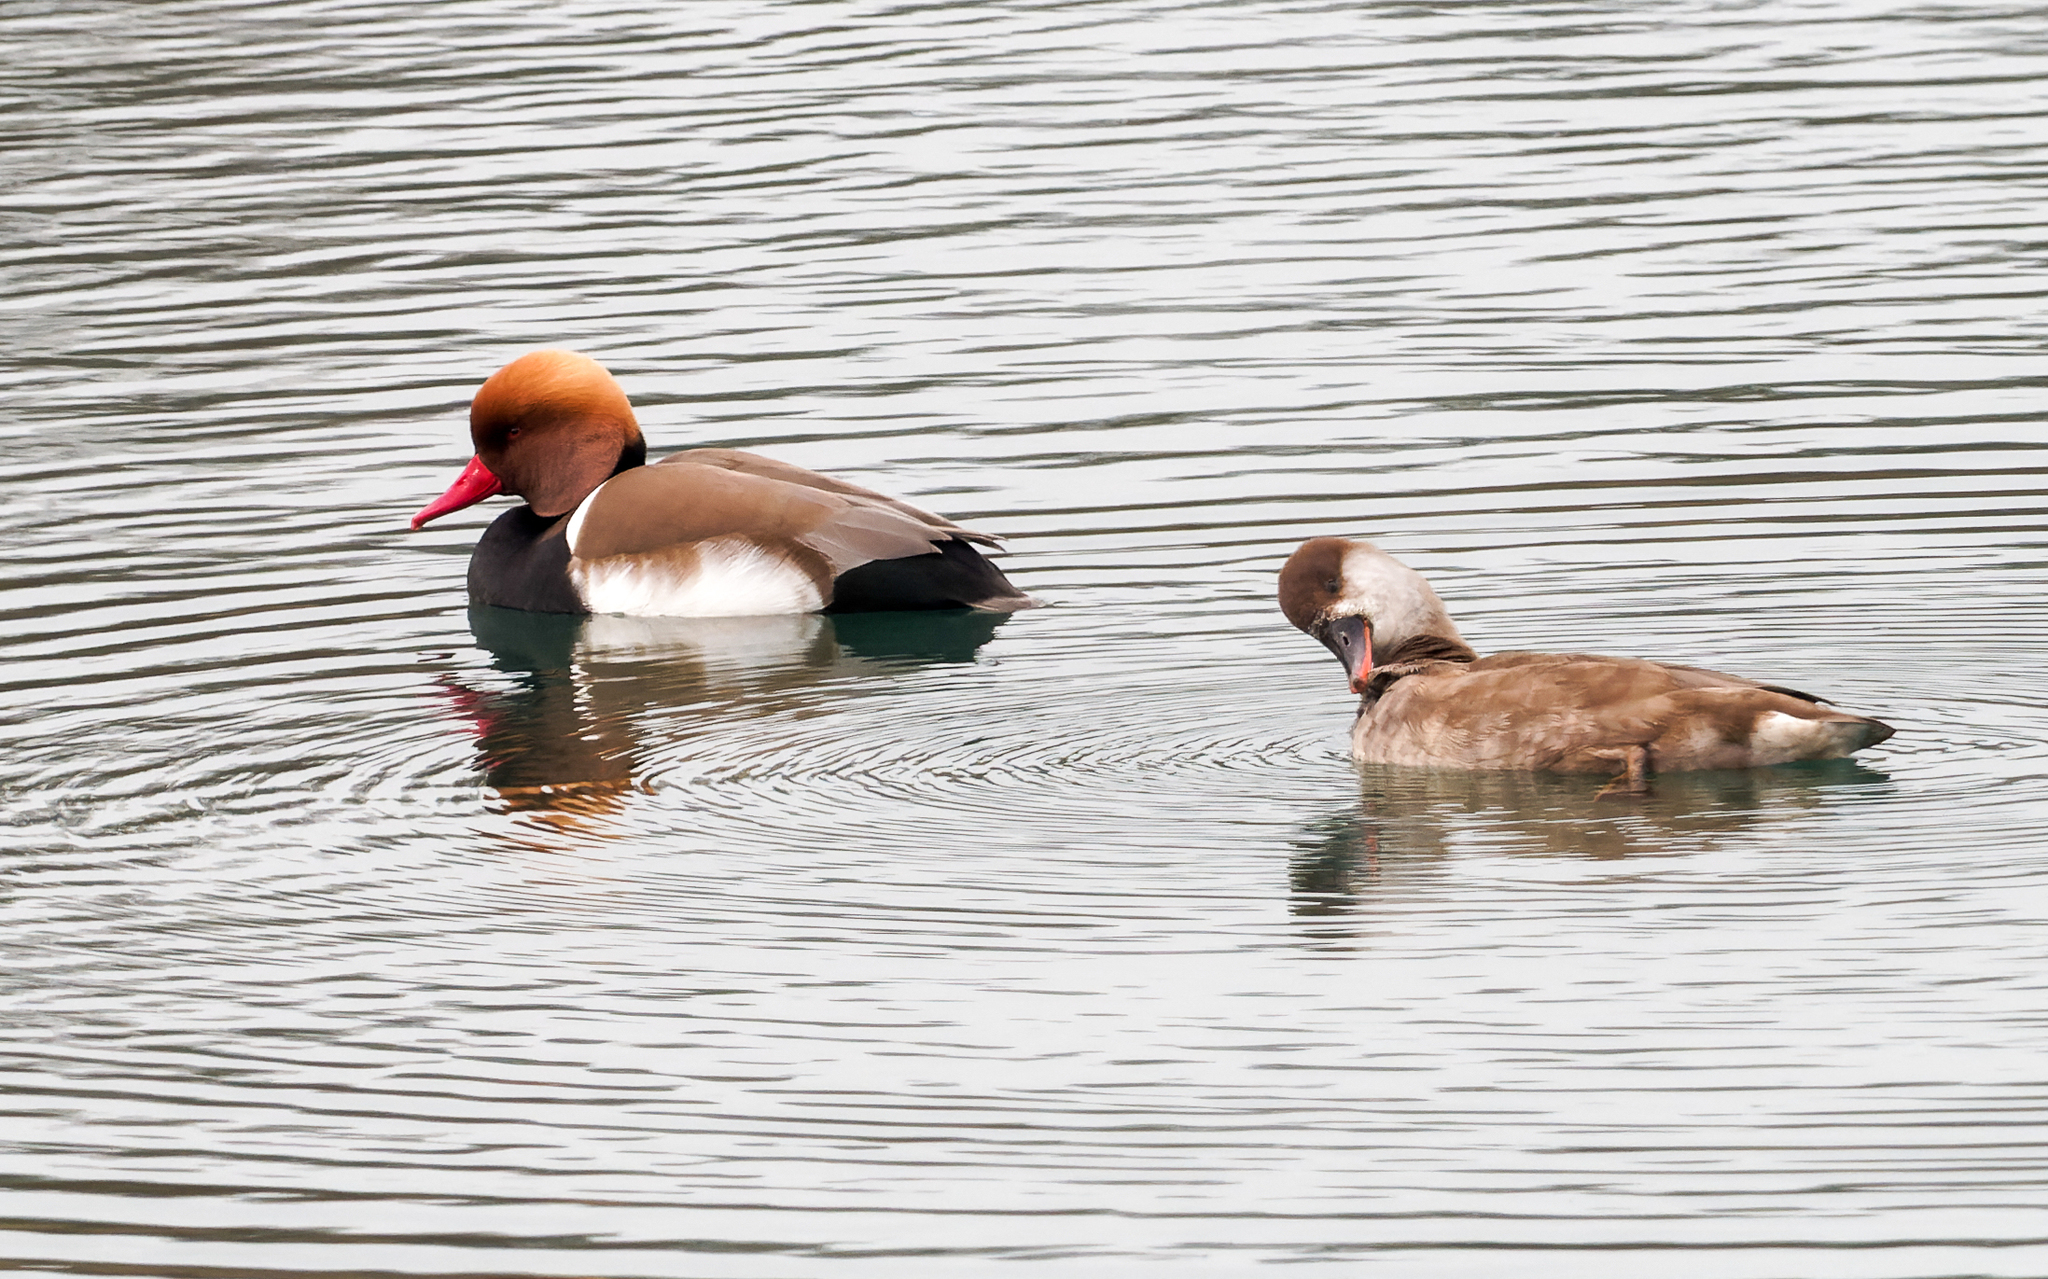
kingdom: Animalia
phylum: Chordata
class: Aves
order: Anseriformes
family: Anatidae
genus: Netta
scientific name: Netta rufina
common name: Red-crested pochard
